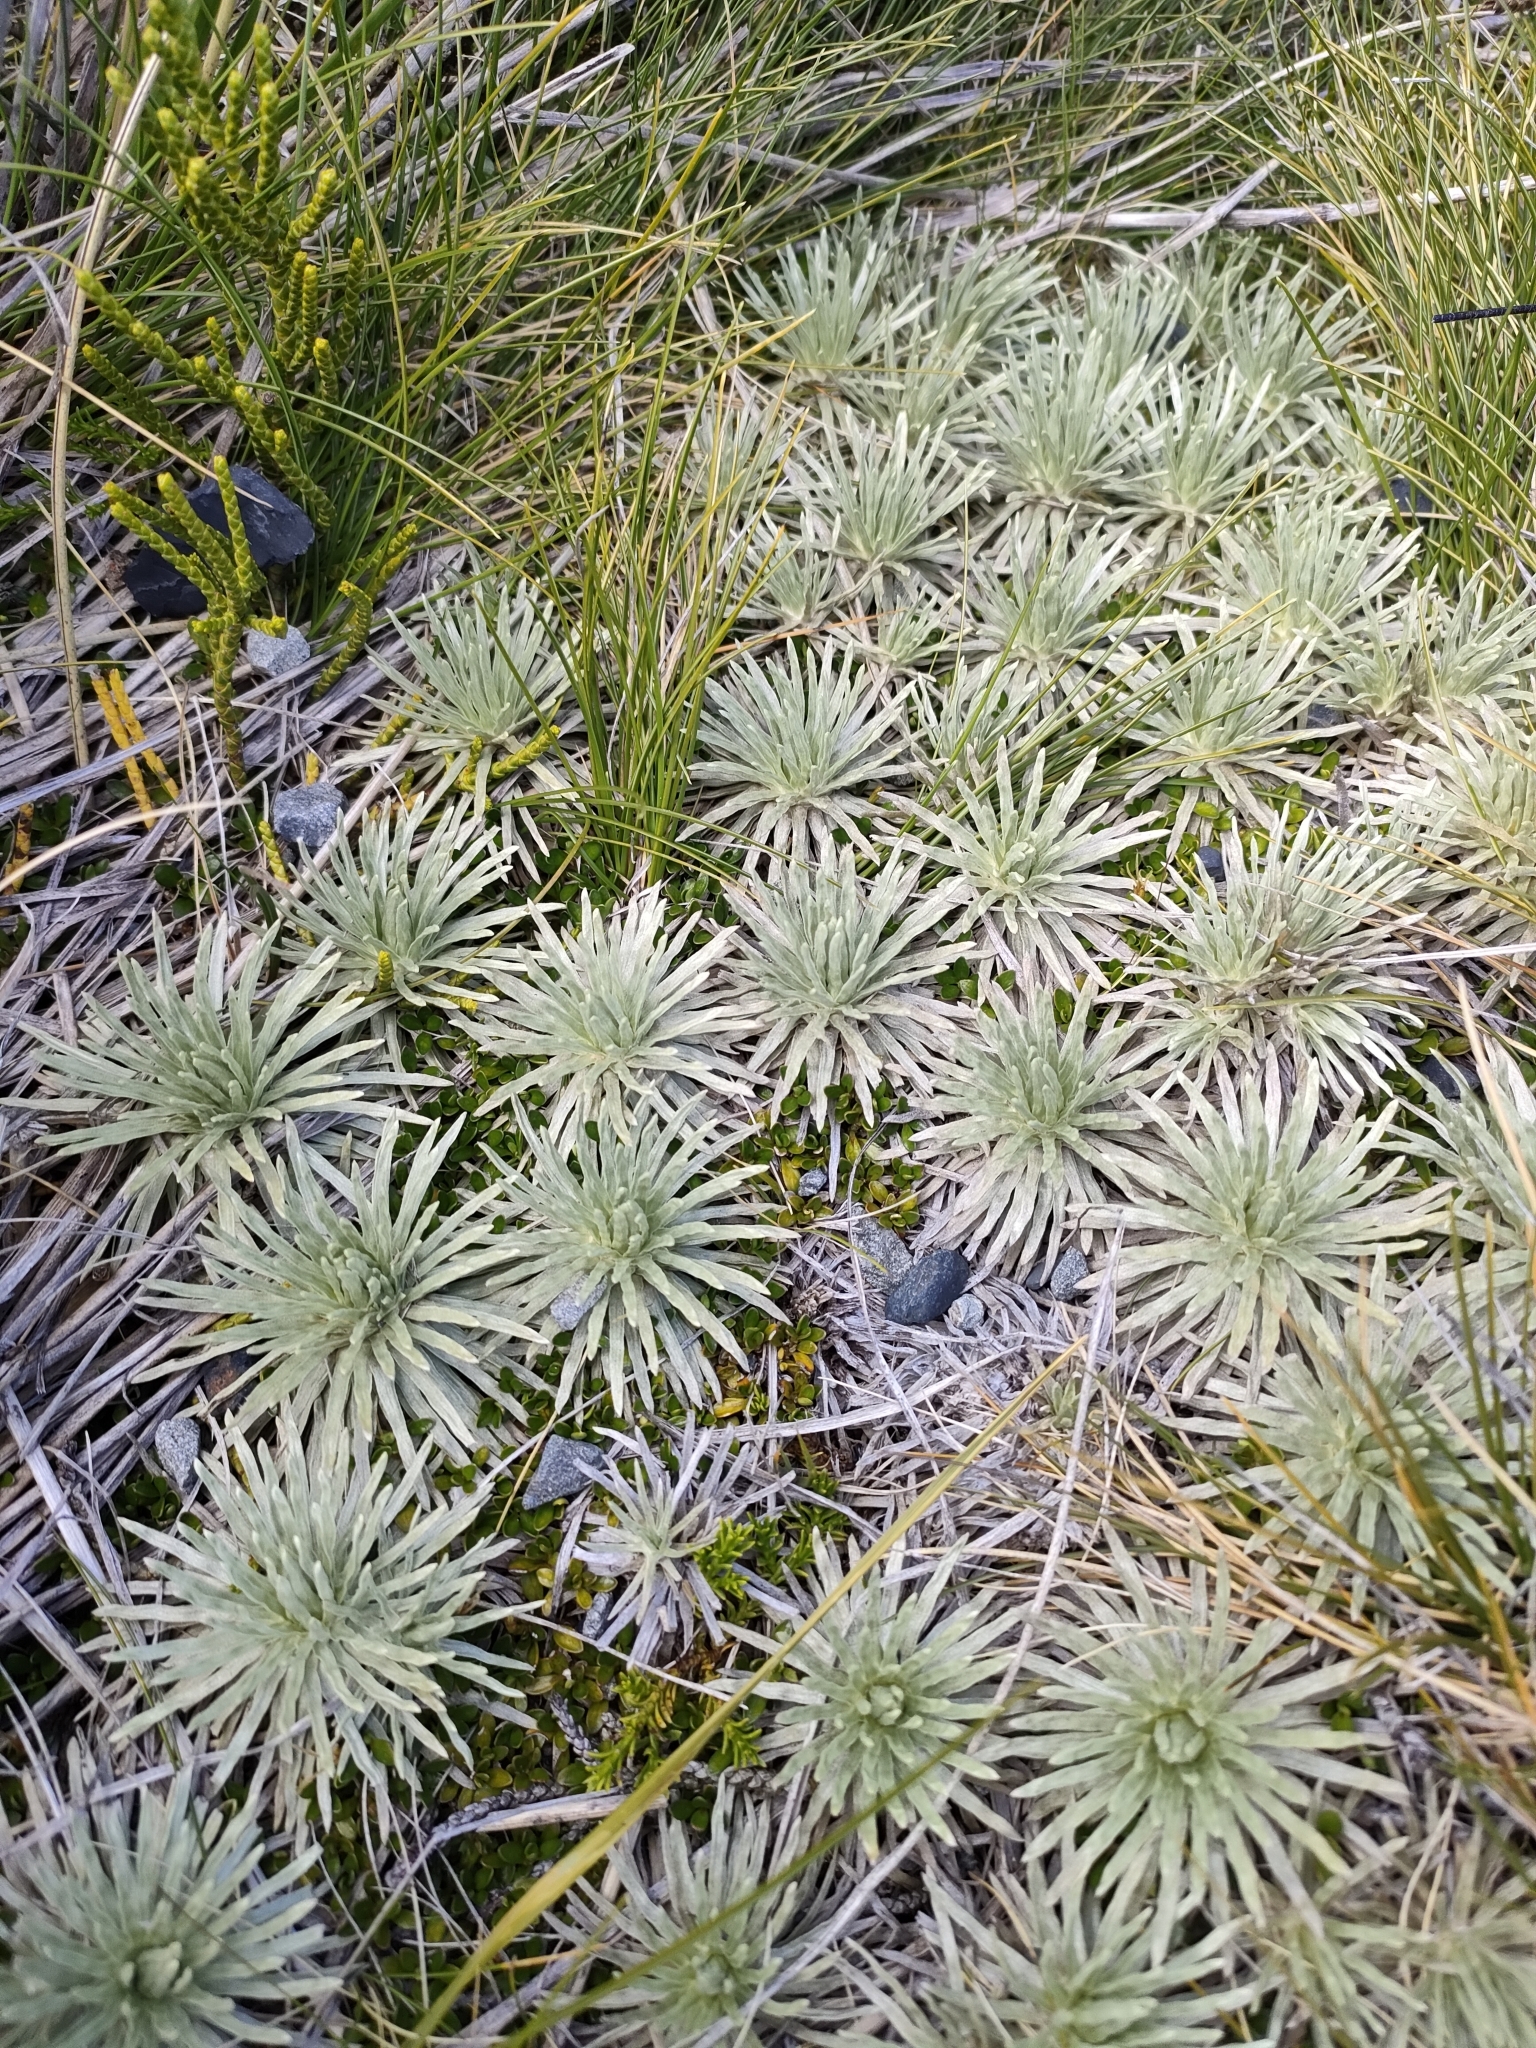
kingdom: Plantae
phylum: Tracheophyta
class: Magnoliopsida
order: Asterales
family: Asteraceae
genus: Celmisia
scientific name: Celmisia sessiliflora
